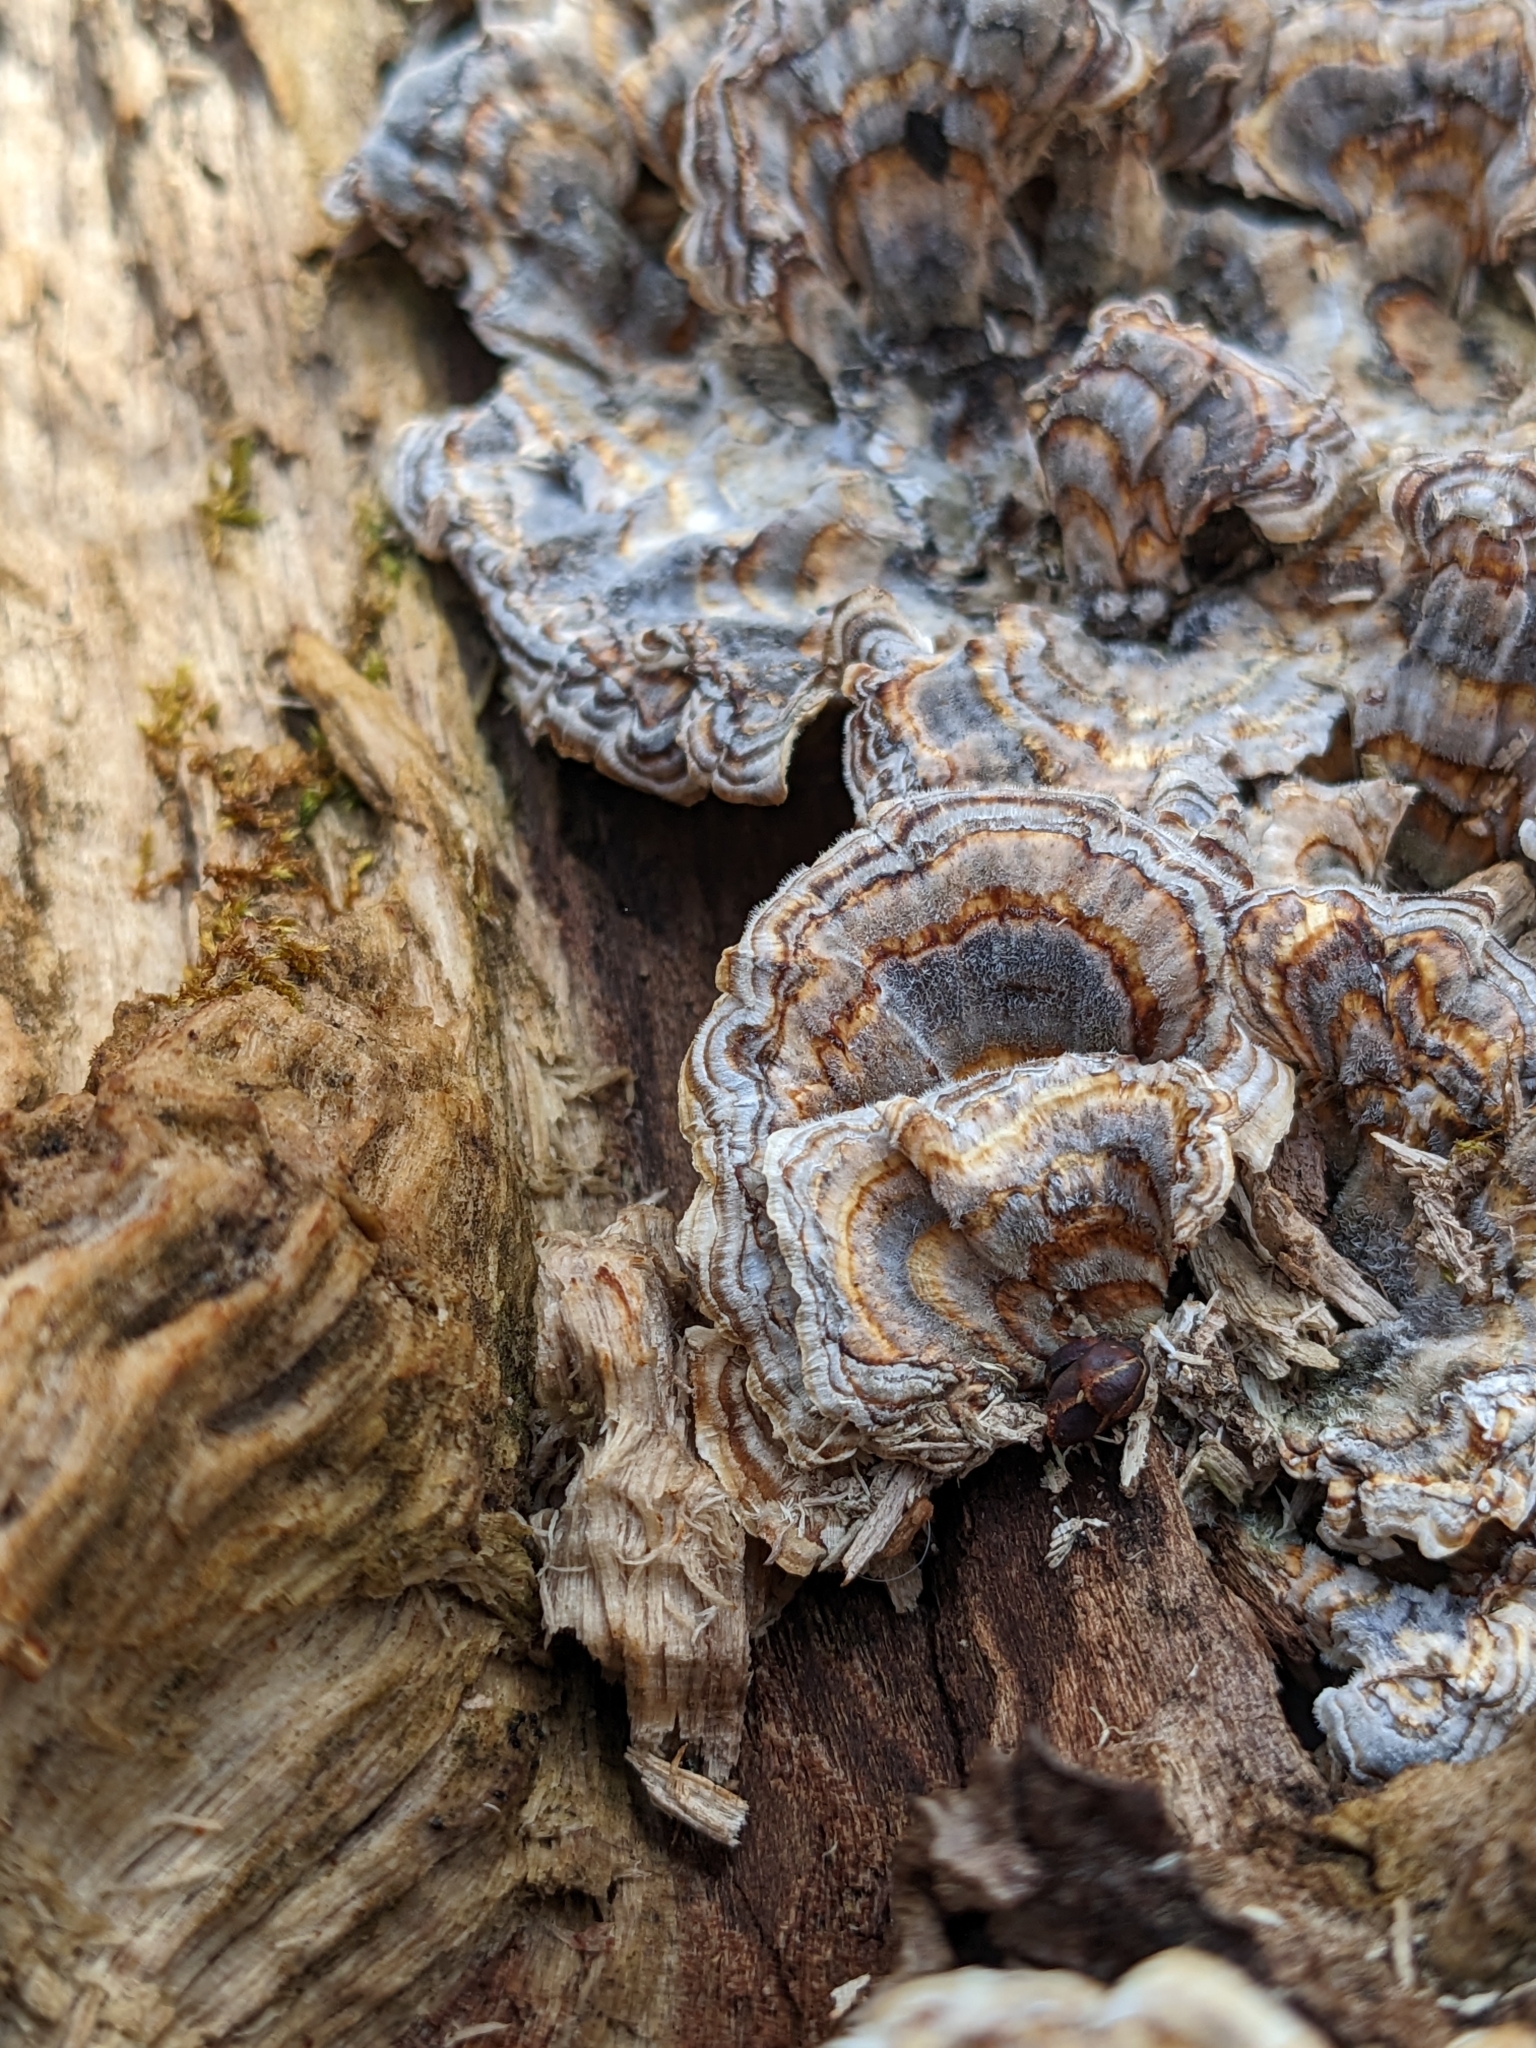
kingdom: Fungi
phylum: Basidiomycota
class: Agaricomycetes
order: Polyporales
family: Polyporaceae
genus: Trametes
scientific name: Trametes versicolor
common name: Turkeytail
